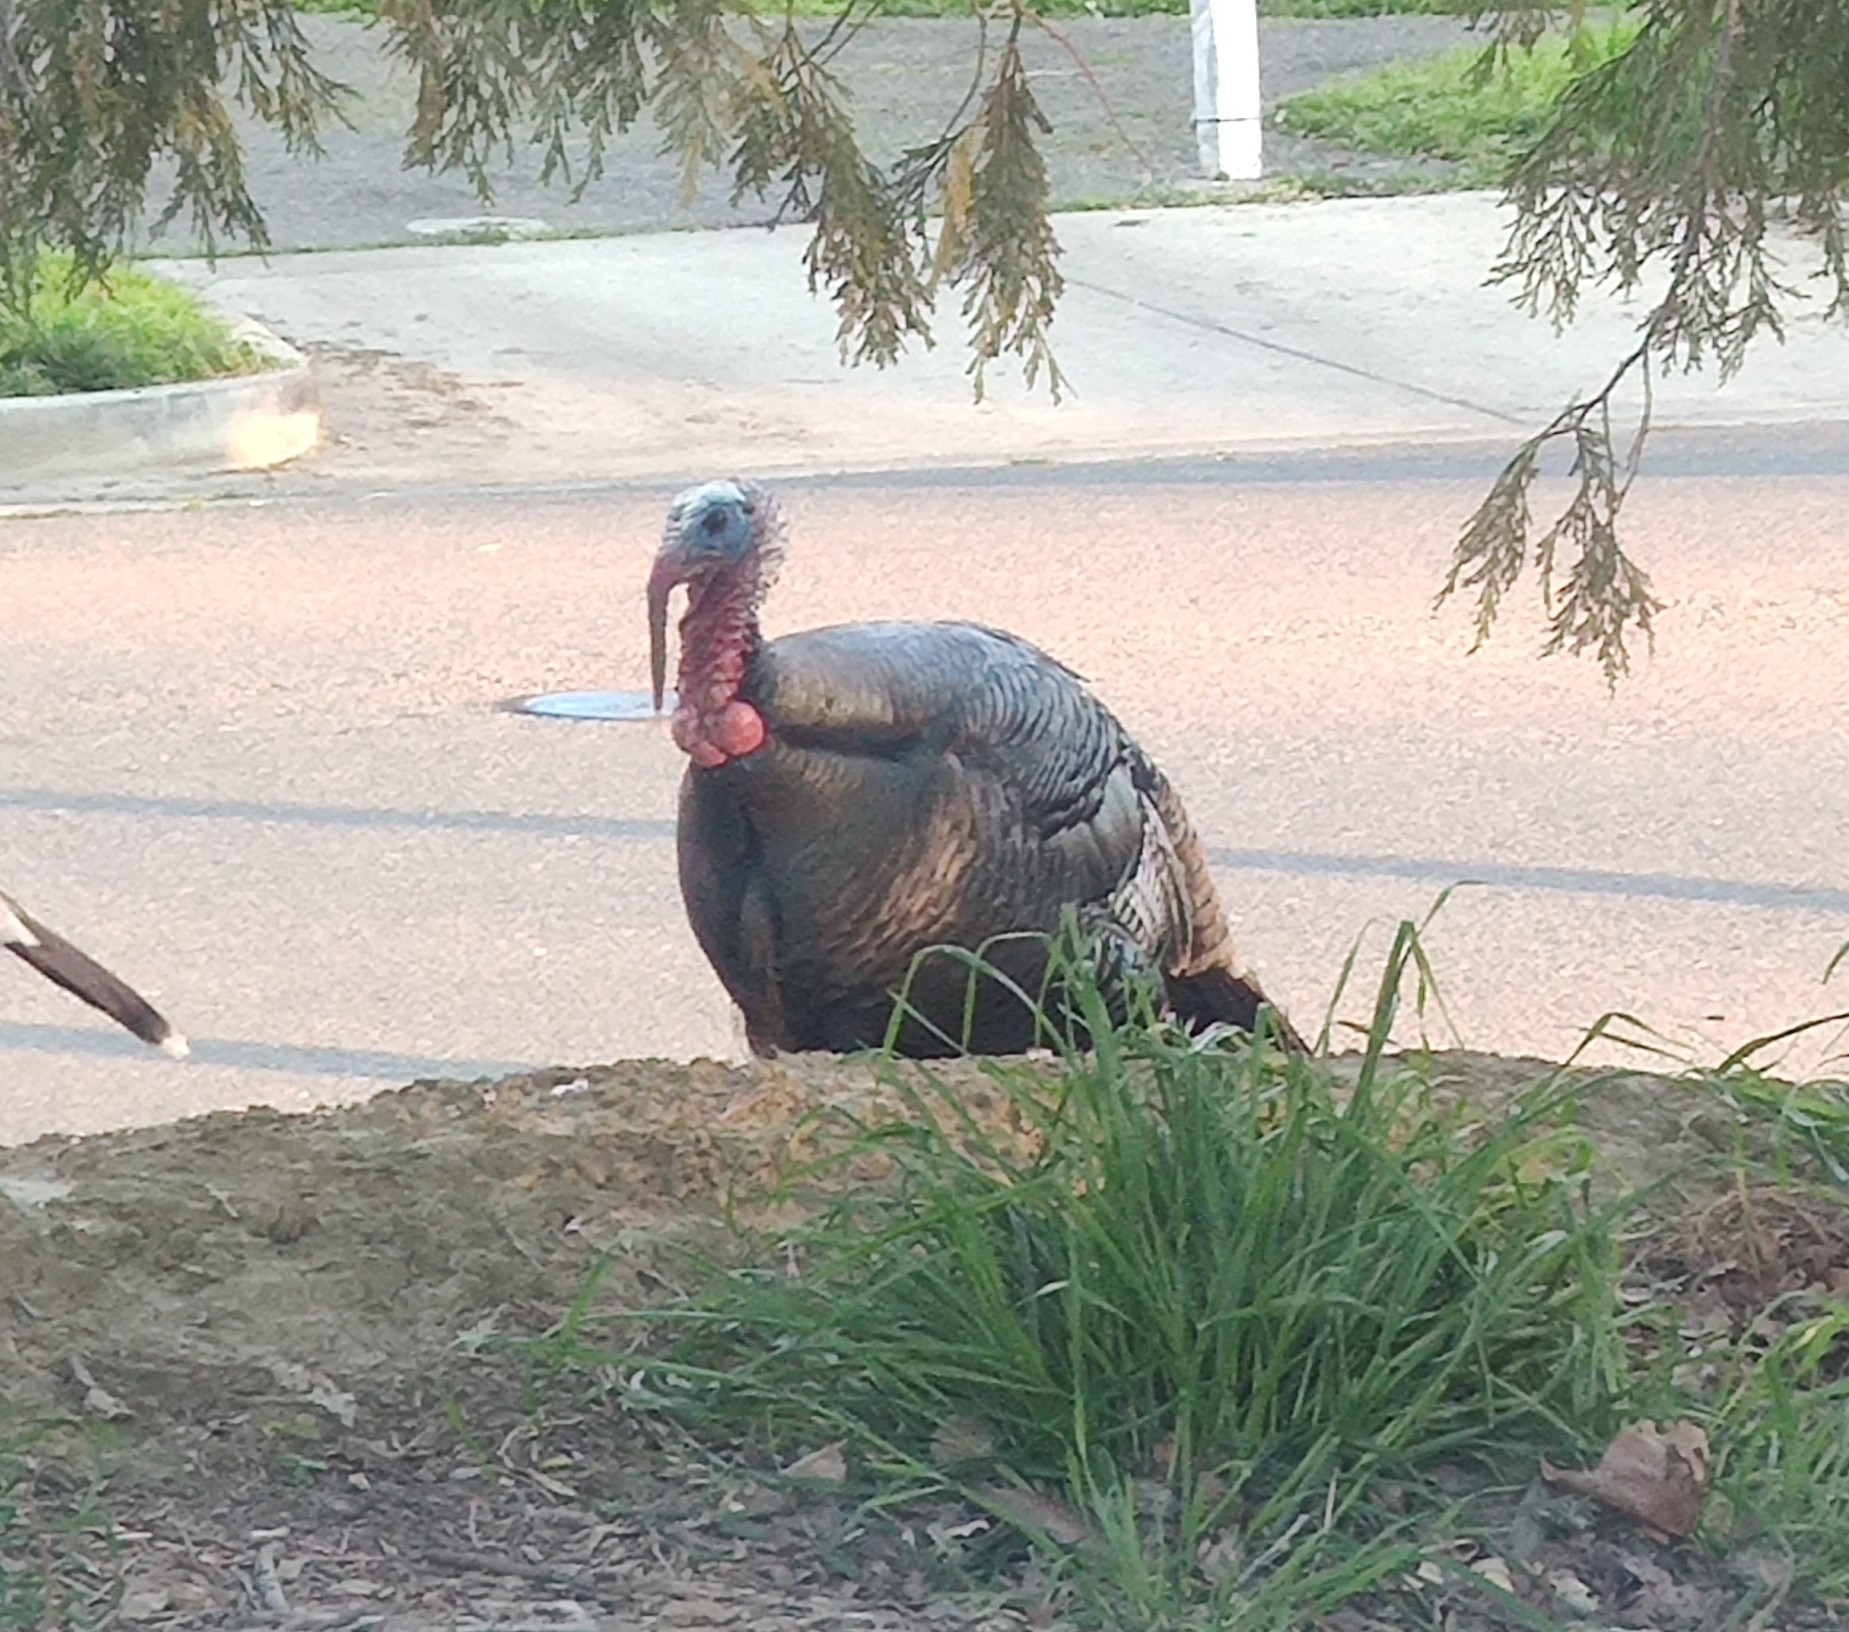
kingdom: Animalia
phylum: Chordata
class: Aves
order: Galliformes
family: Phasianidae
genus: Meleagris
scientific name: Meleagris gallopavo
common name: Wild turkey
